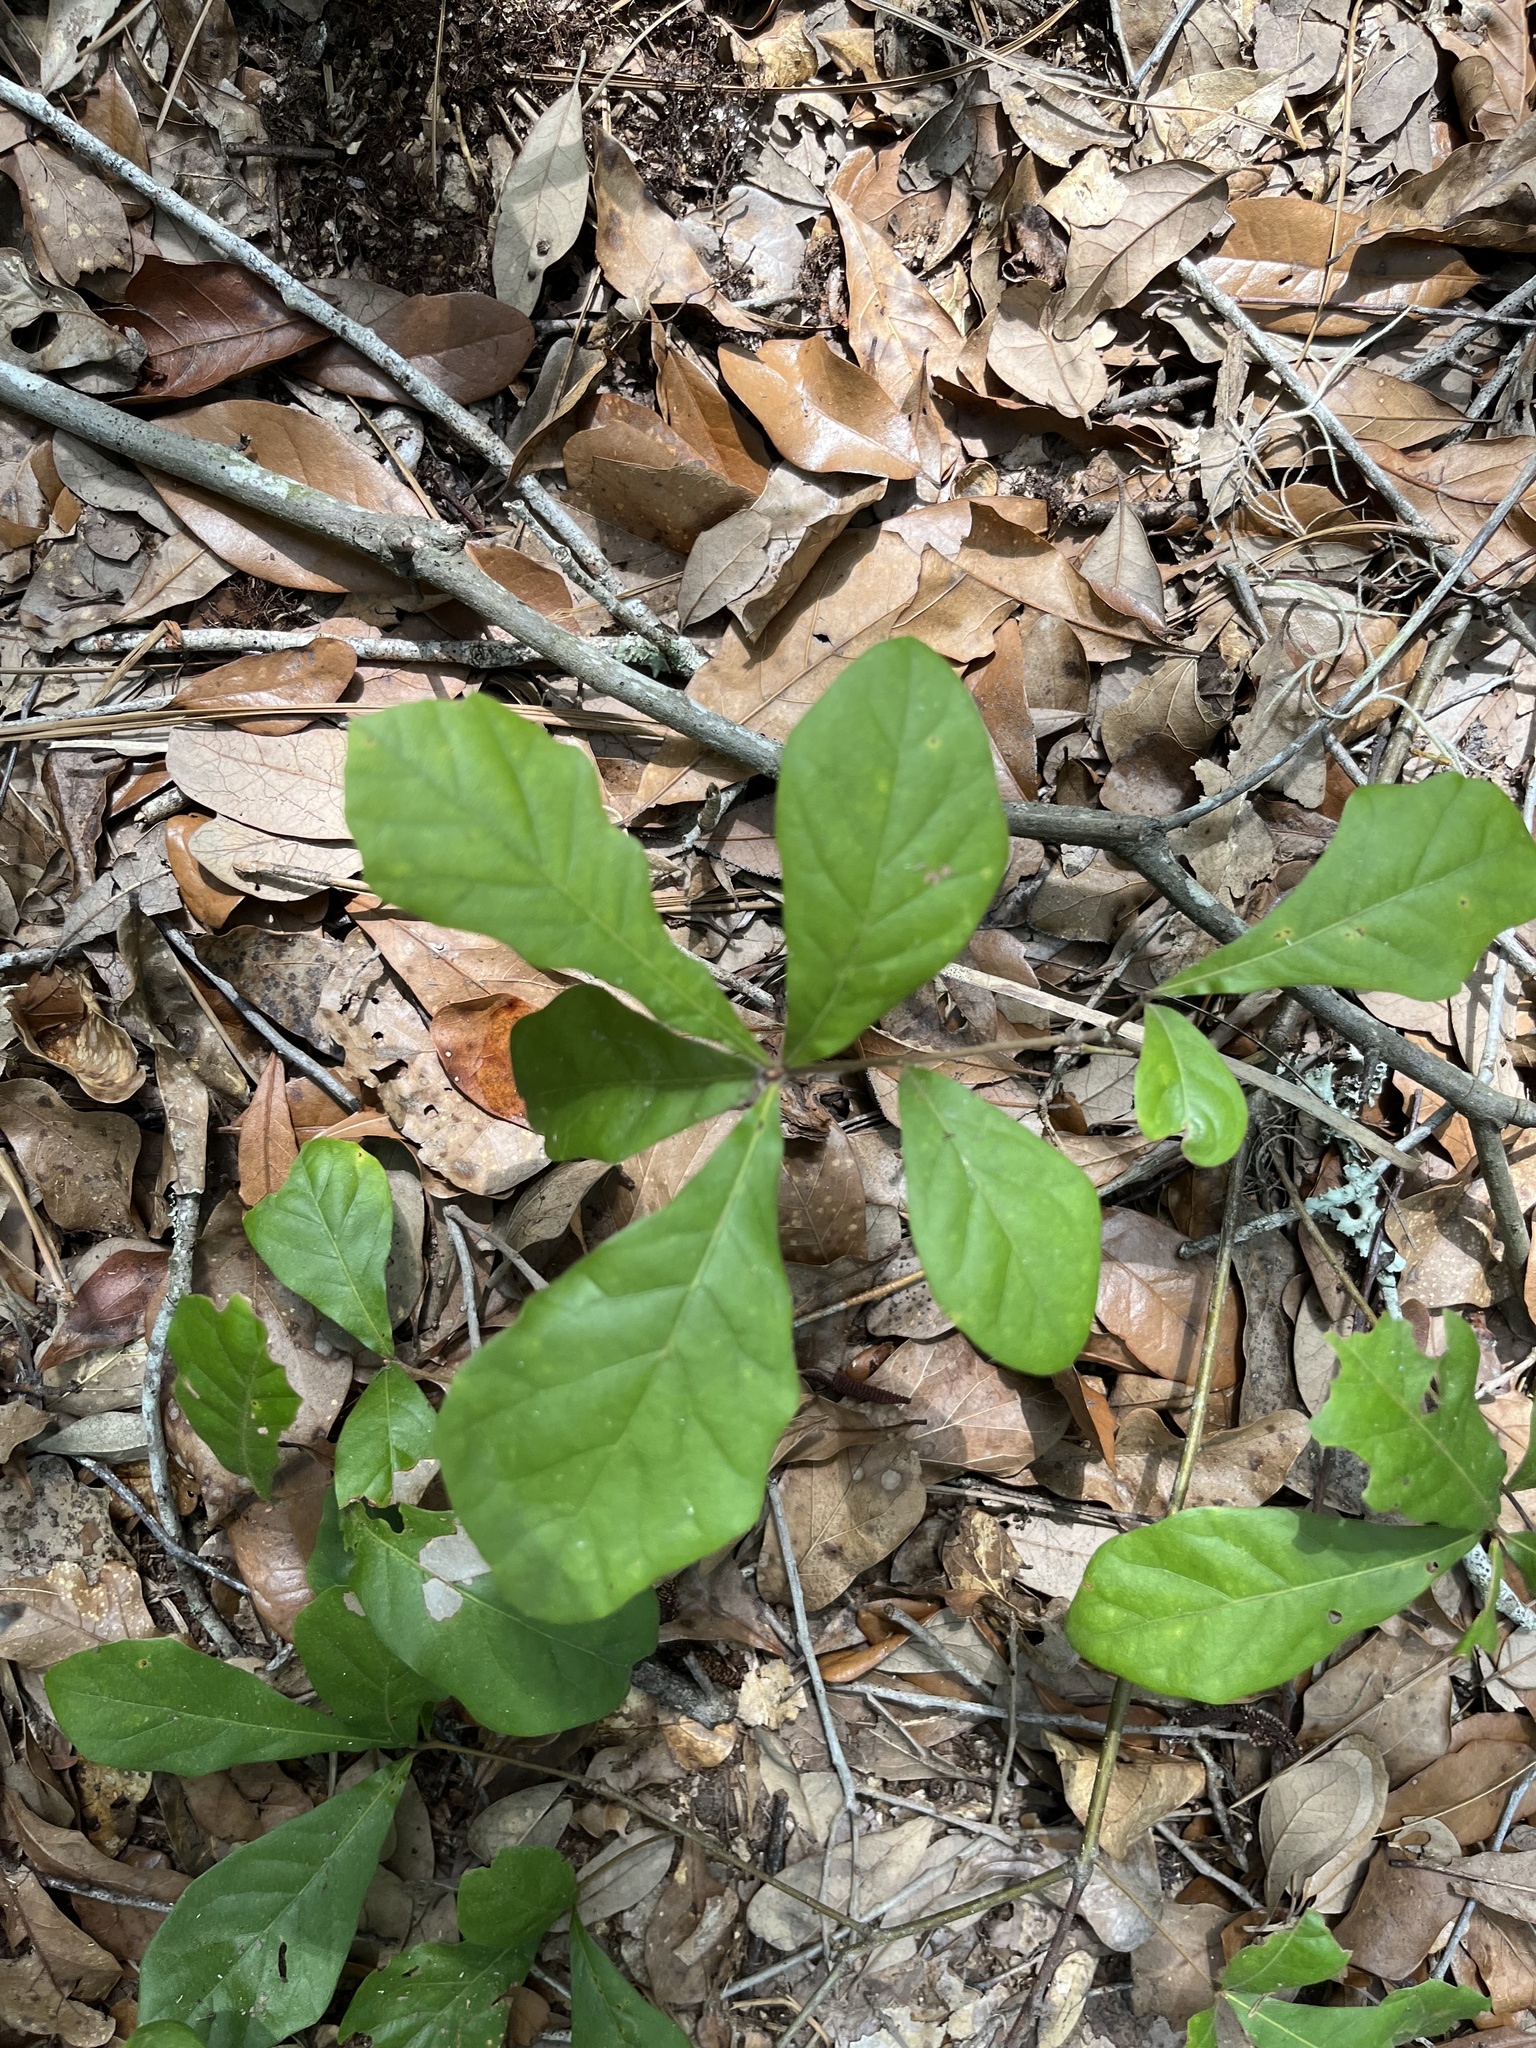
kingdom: Plantae
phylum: Tracheophyta
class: Magnoliopsida
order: Fagales
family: Fagaceae
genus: Quercus
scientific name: Quercus nigra
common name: Water oak
